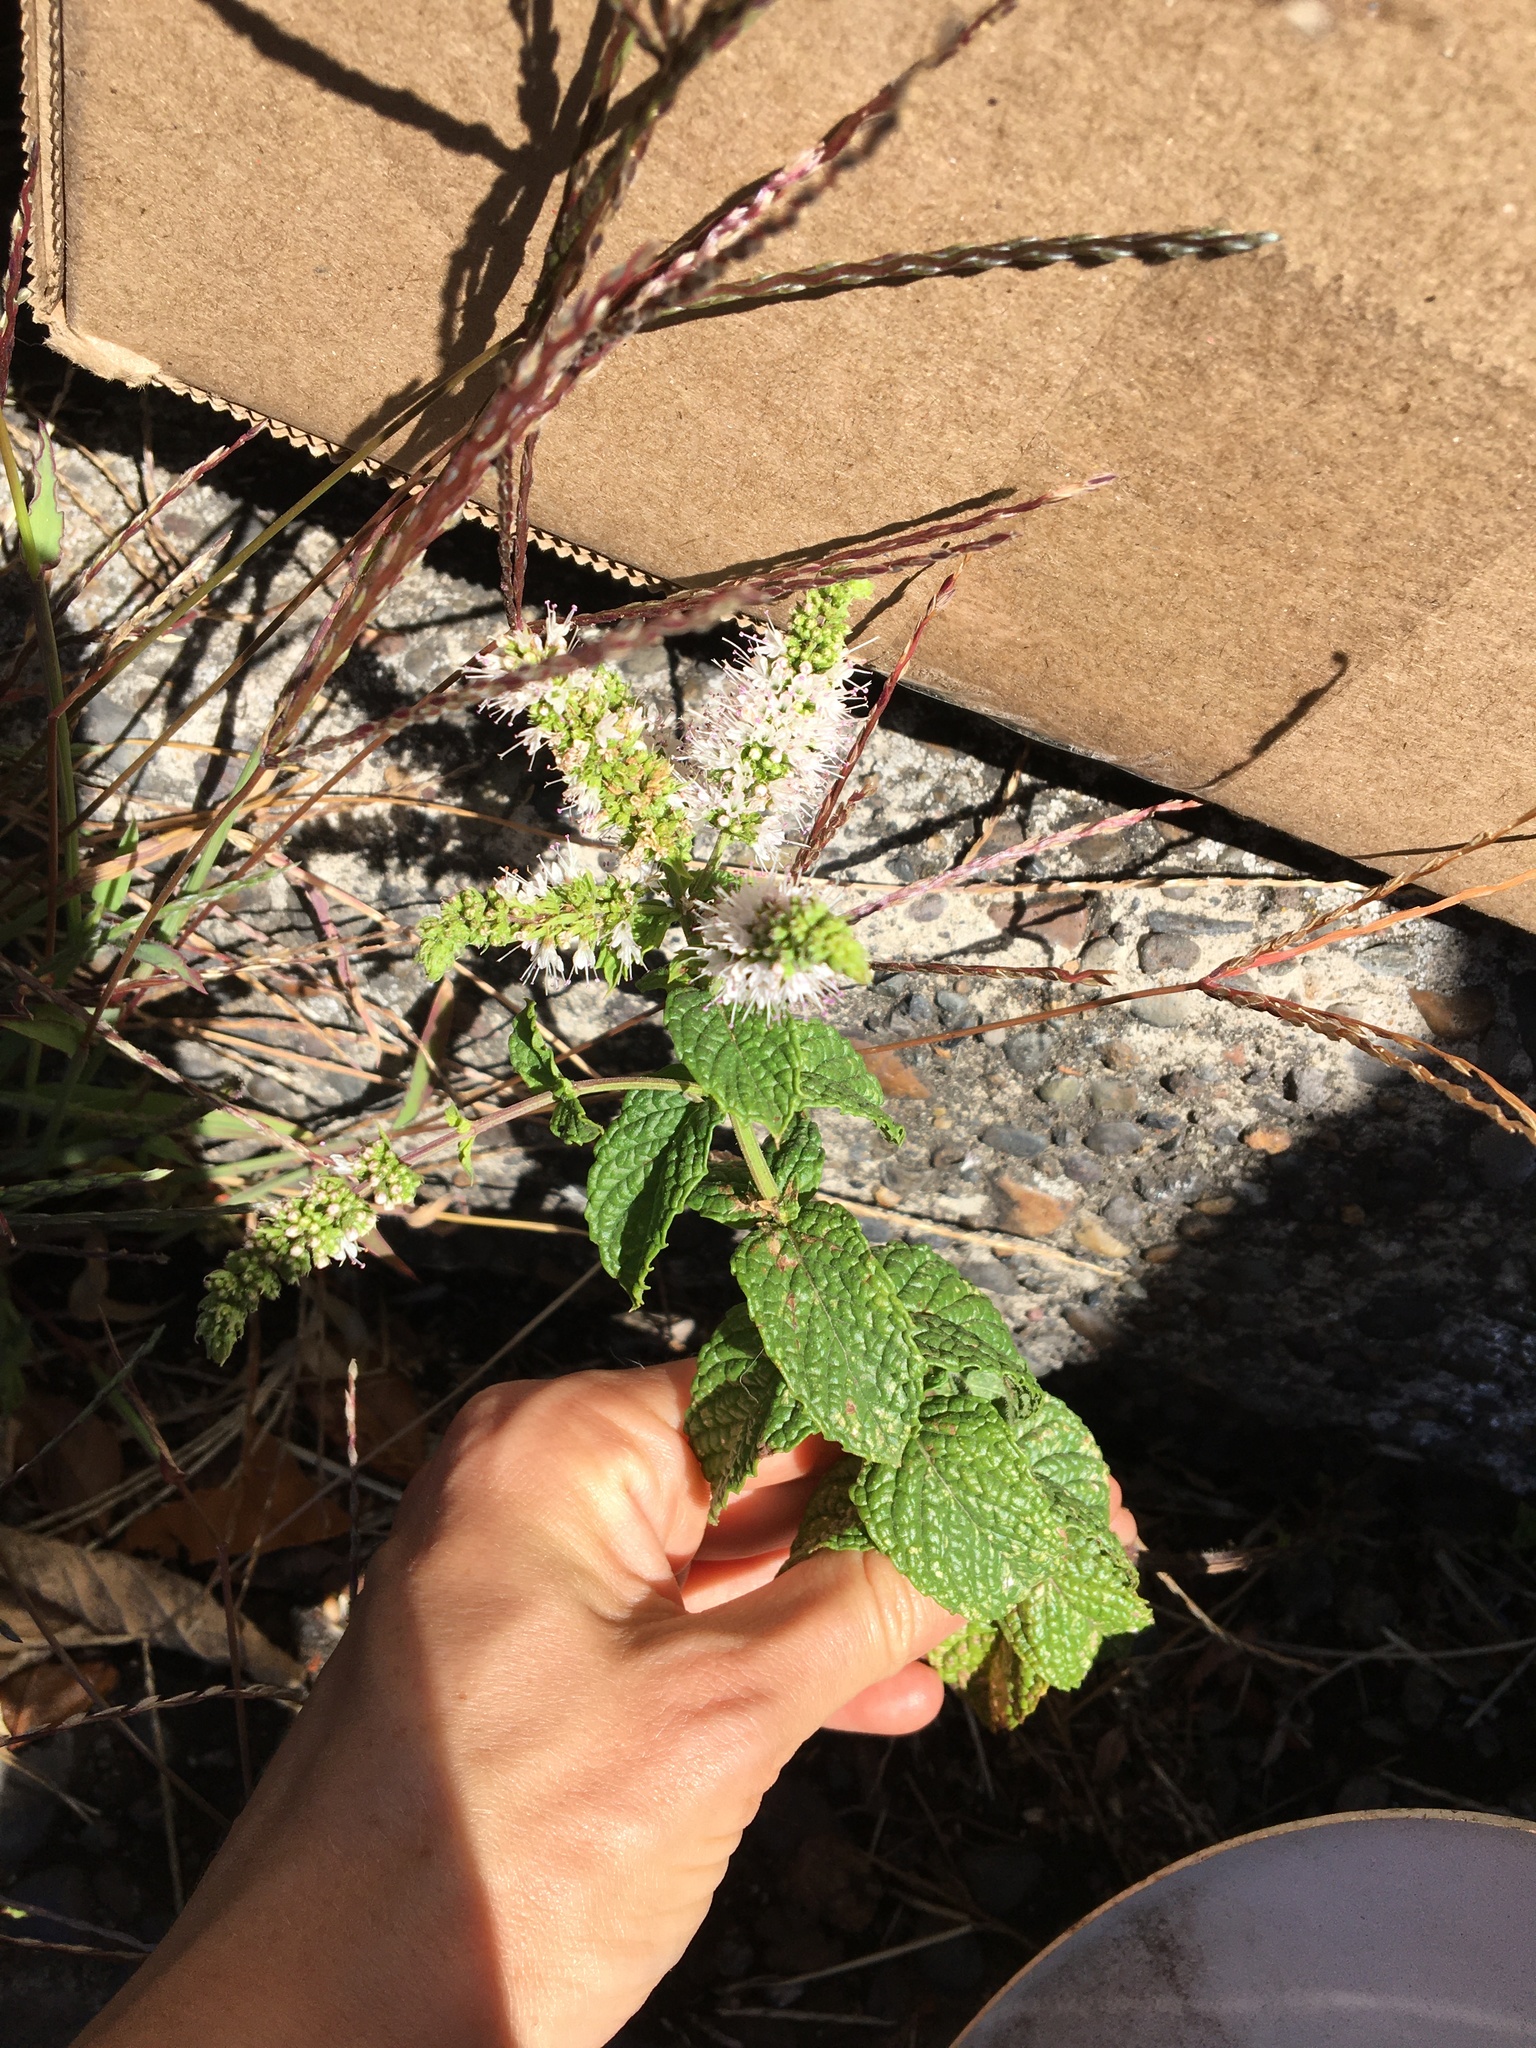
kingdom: Plantae
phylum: Tracheophyta
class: Magnoliopsida
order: Lamiales
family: Lamiaceae
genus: Mentha
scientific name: Mentha spicata
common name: Spearmint
